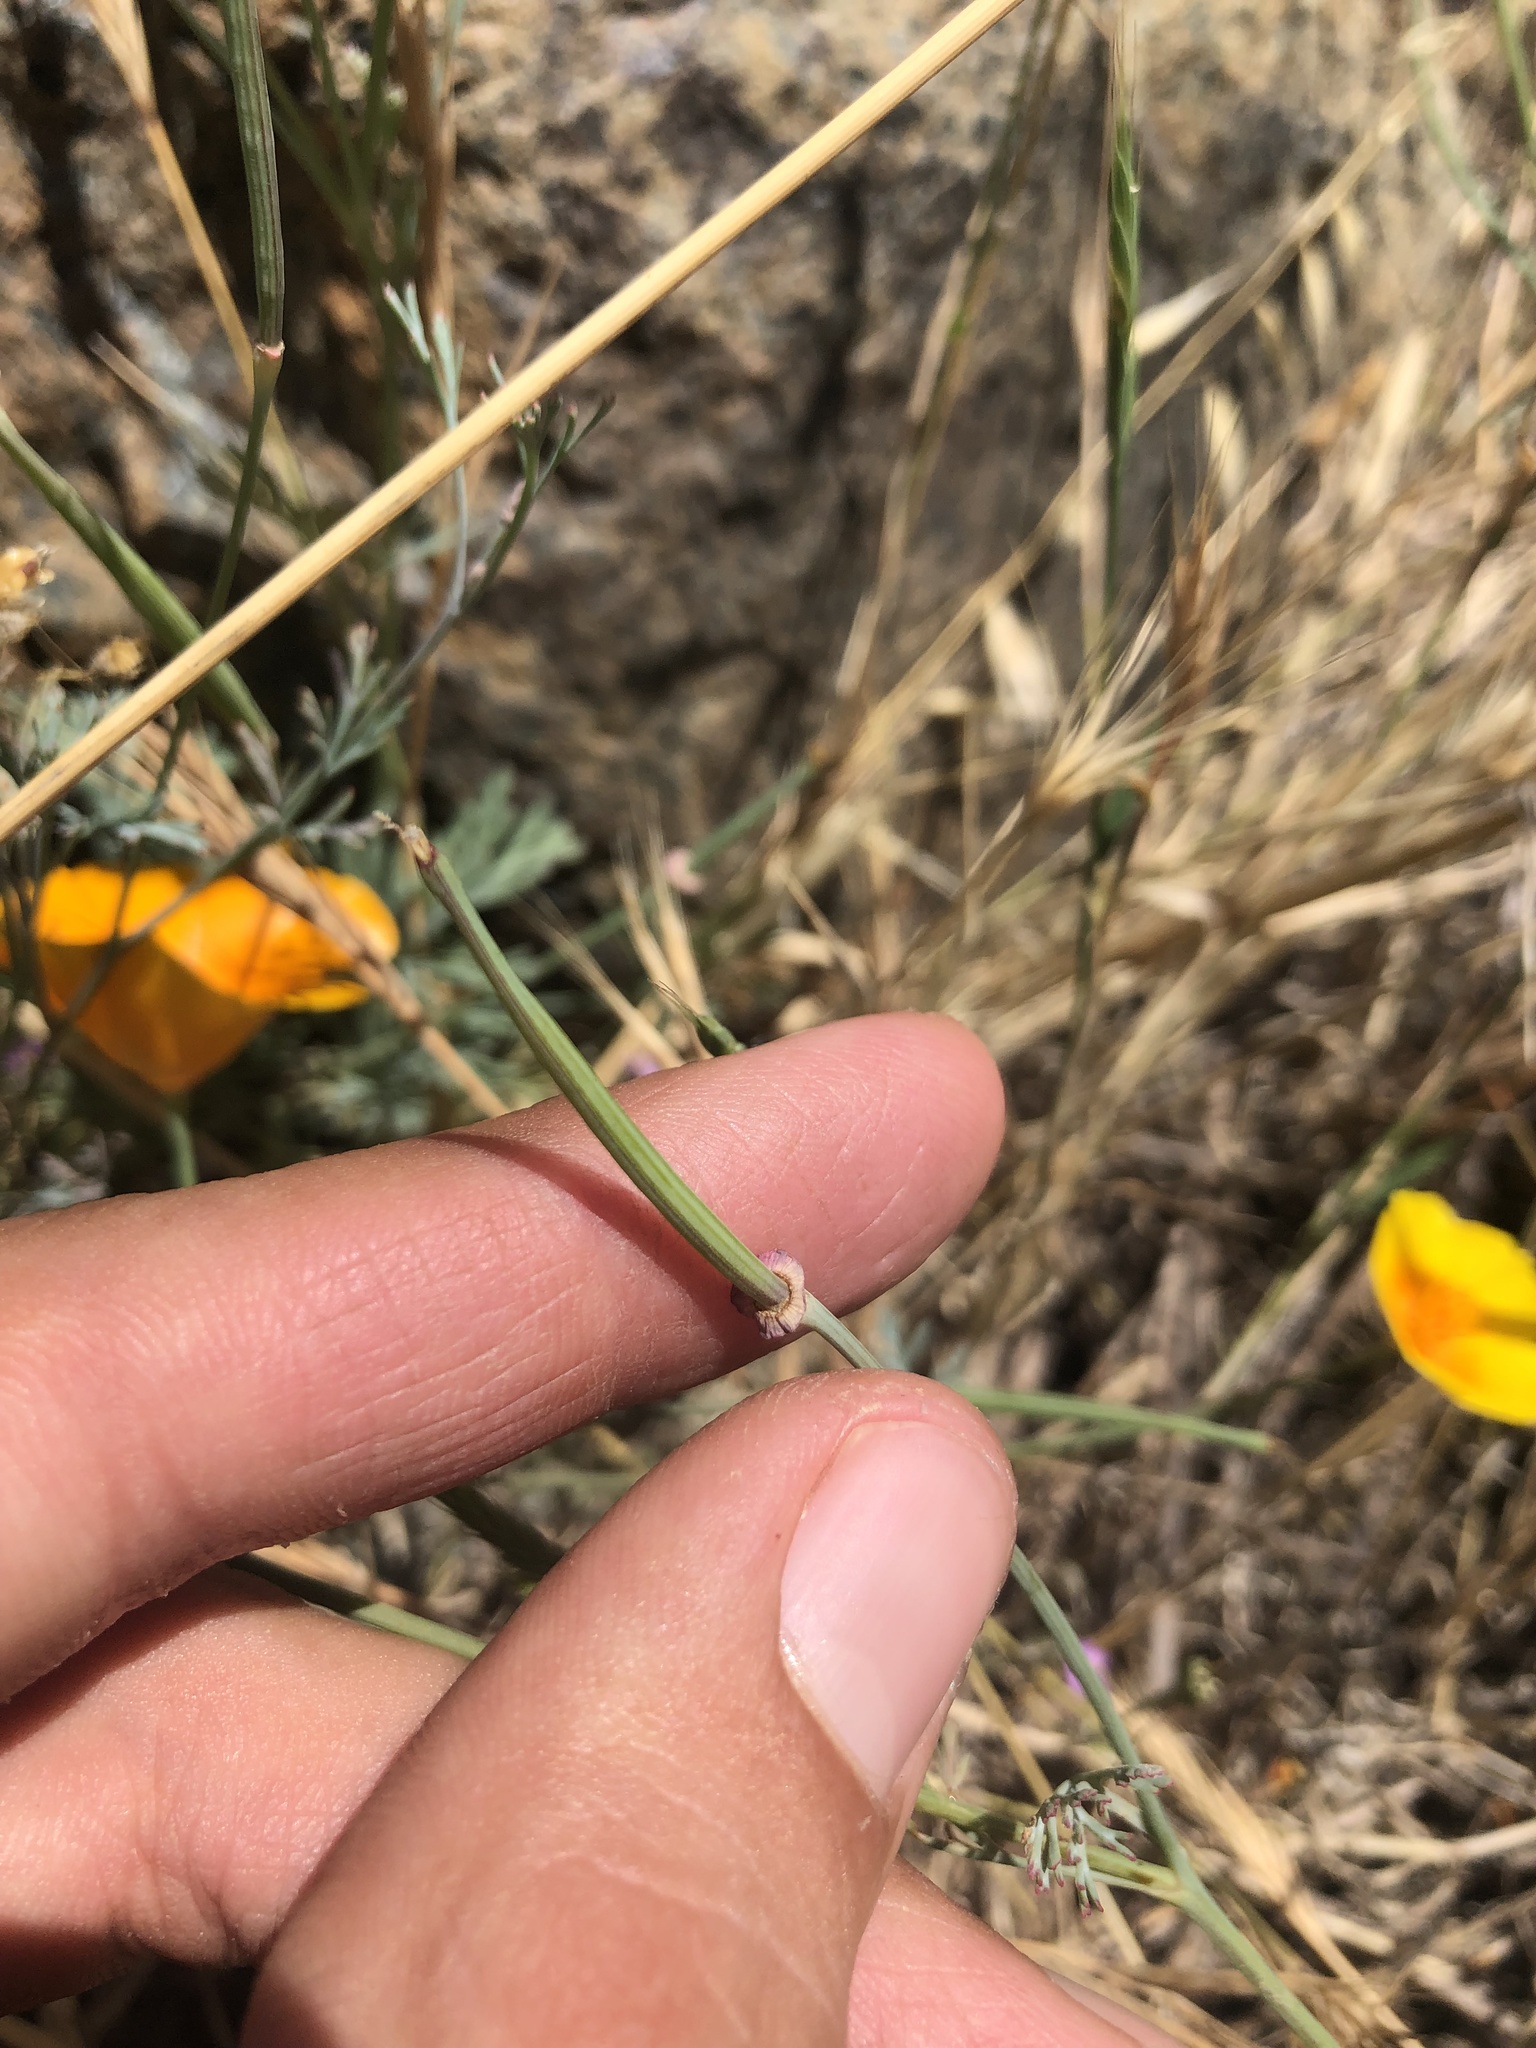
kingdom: Plantae
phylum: Tracheophyta
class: Magnoliopsida
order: Ranunculales
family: Papaveraceae
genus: Eschscholzia
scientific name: Eschscholzia californica
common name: California poppy
